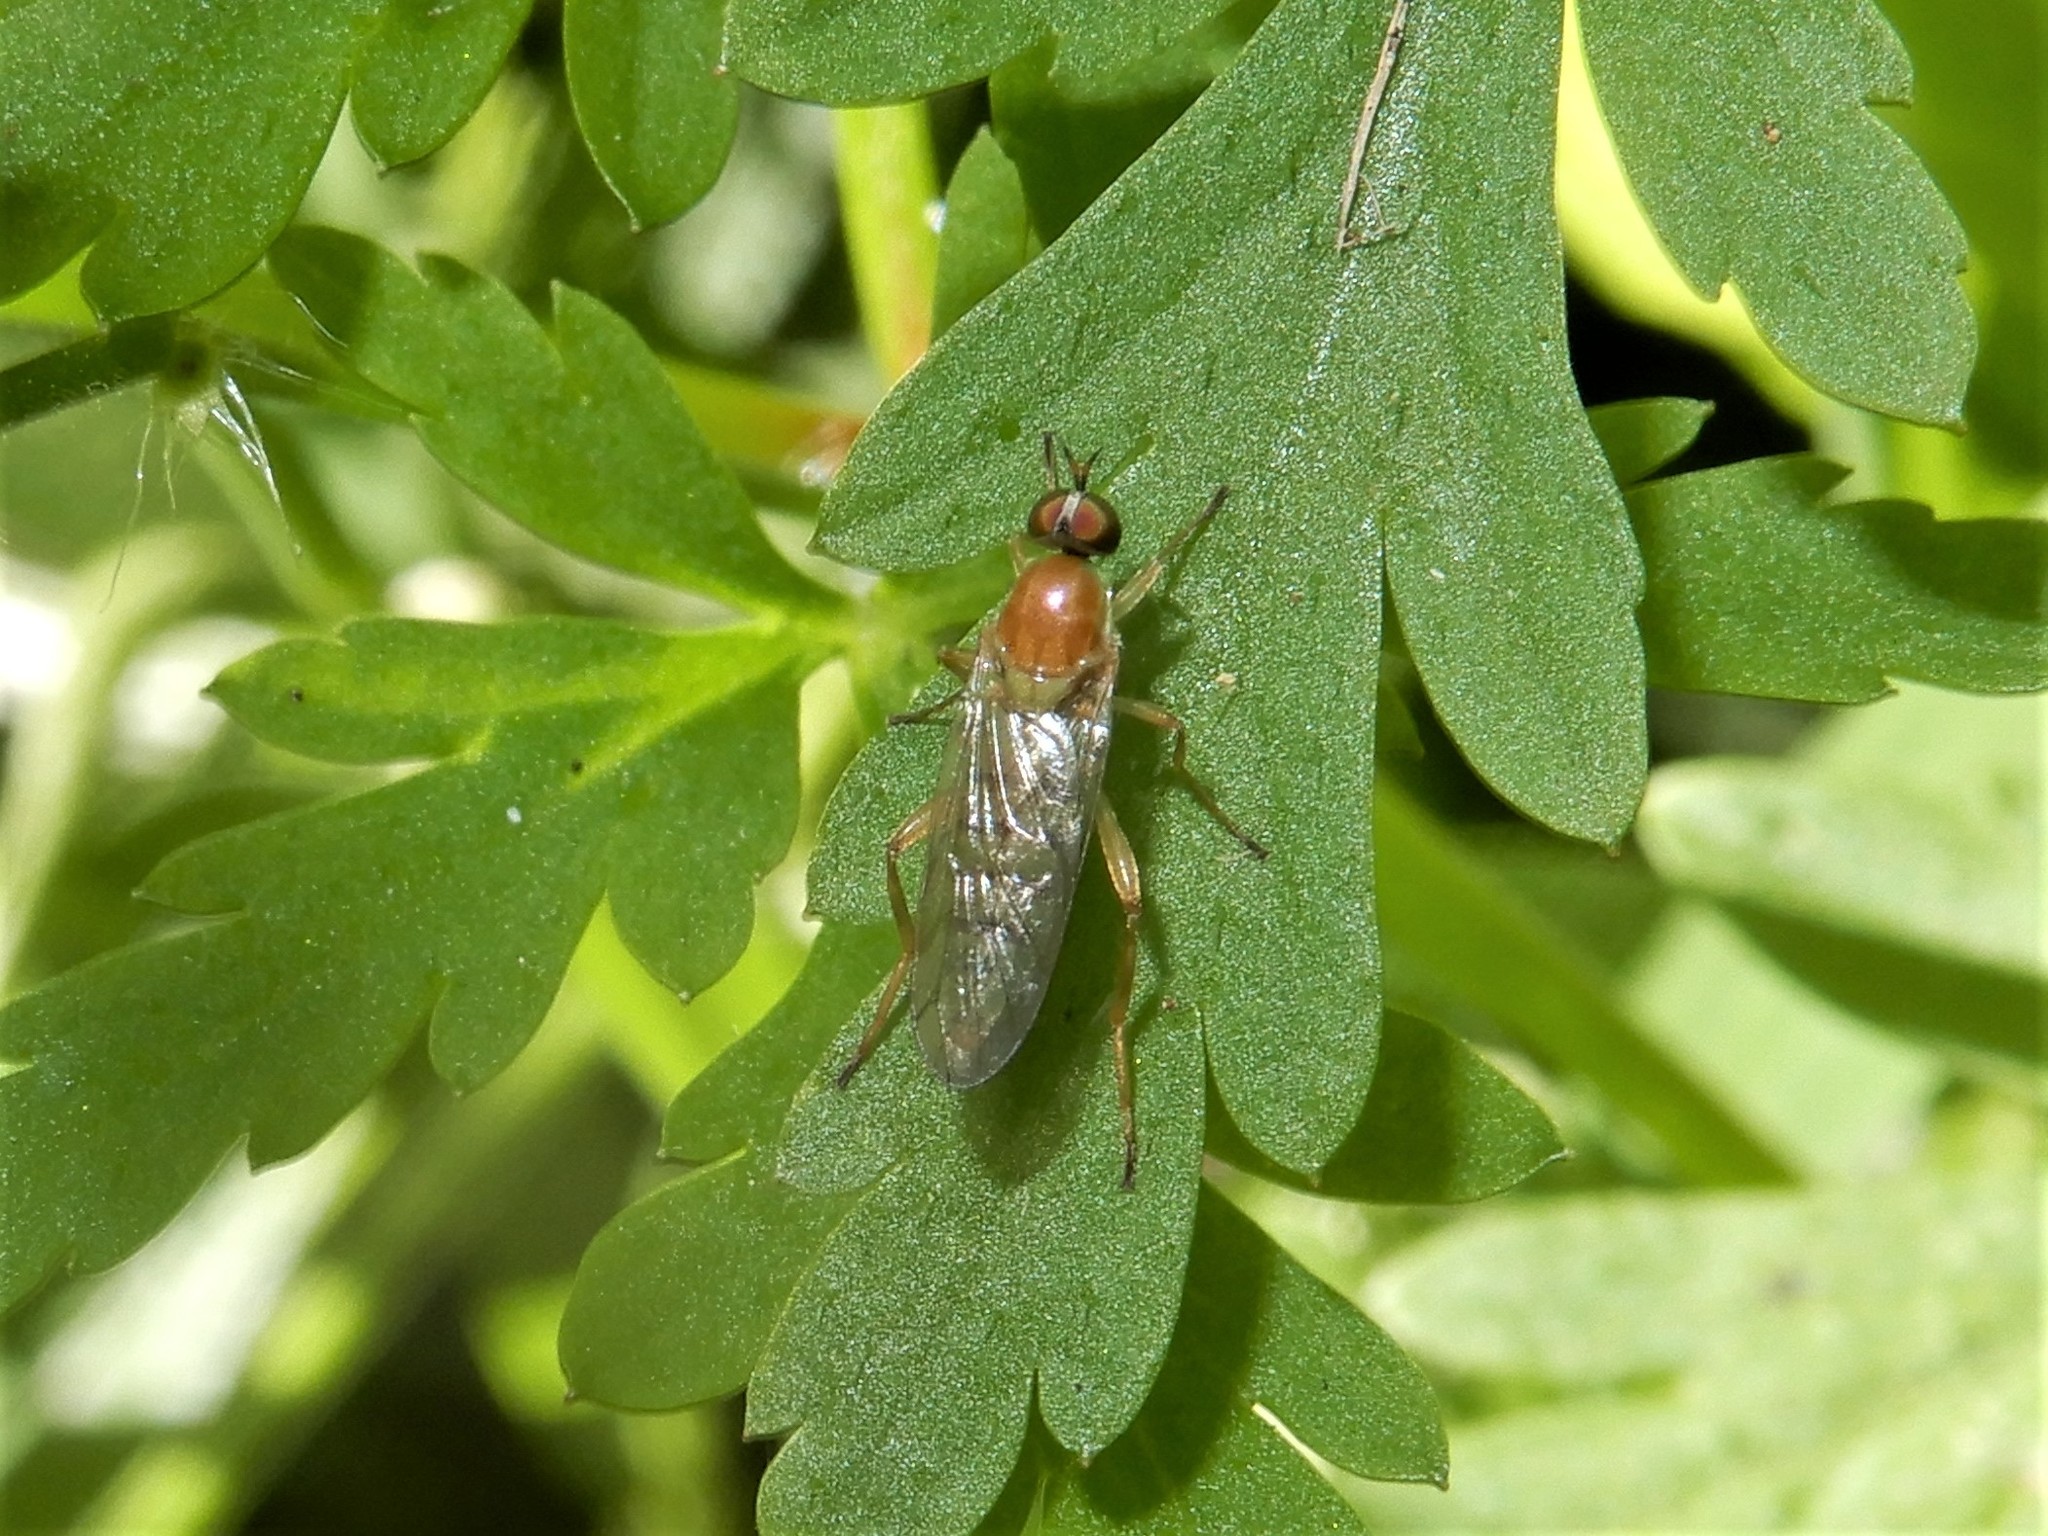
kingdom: Animalia
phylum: Arthropoda
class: Insecta
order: Diptera
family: Stratiomyidae
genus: Australoberis
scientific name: Australoberis refugians
